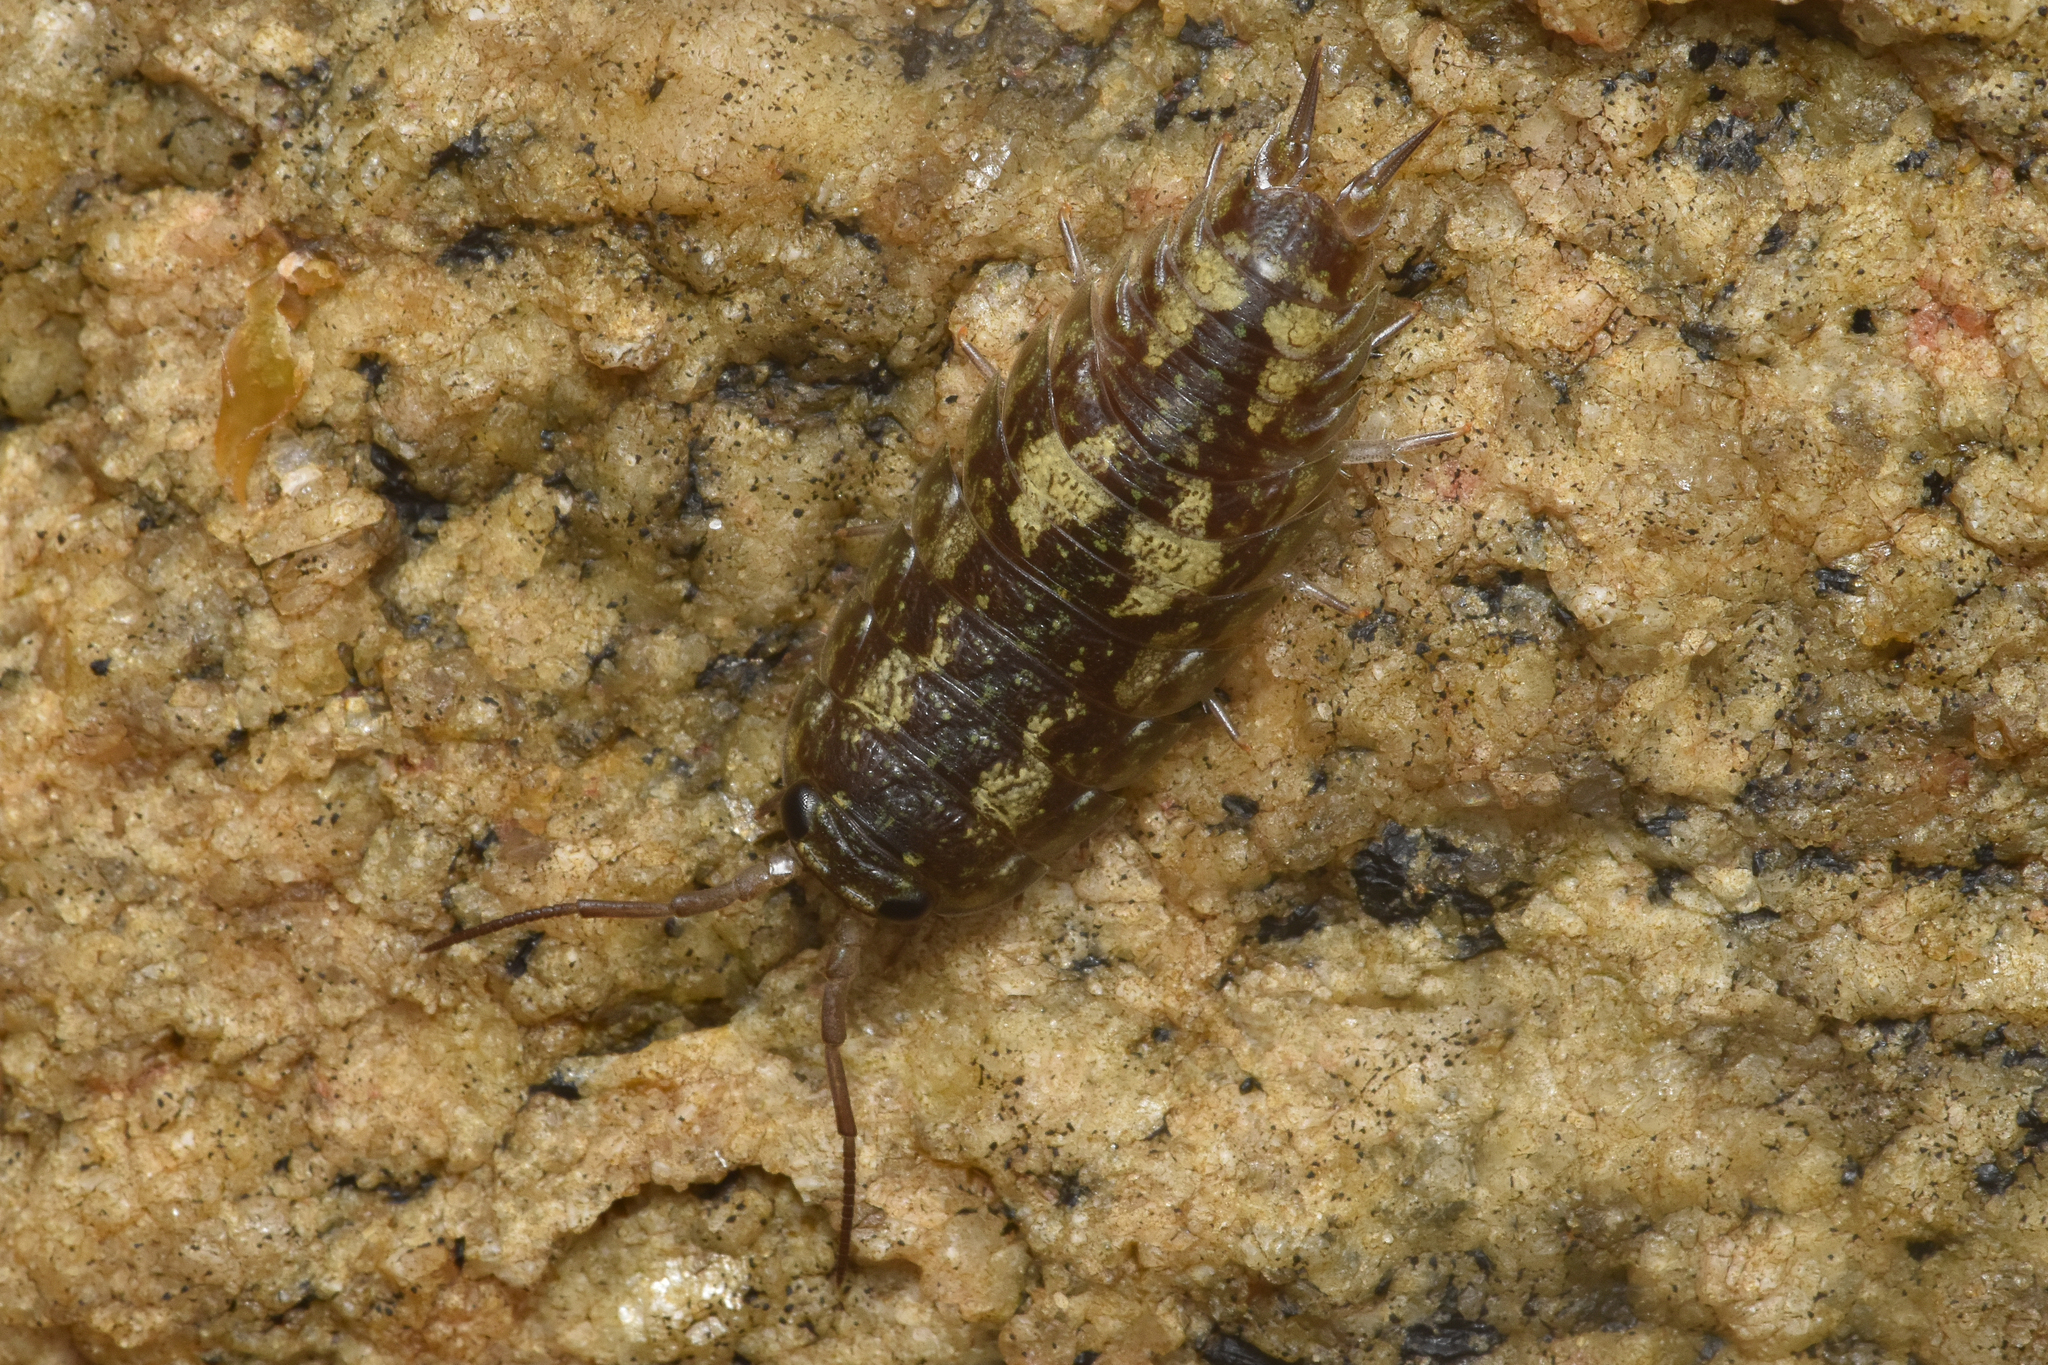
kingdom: Animalia
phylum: Arthropoda
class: Malacostraca
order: Isopoda
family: Ligiidae
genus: Ligia
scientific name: Ligia pallasii
